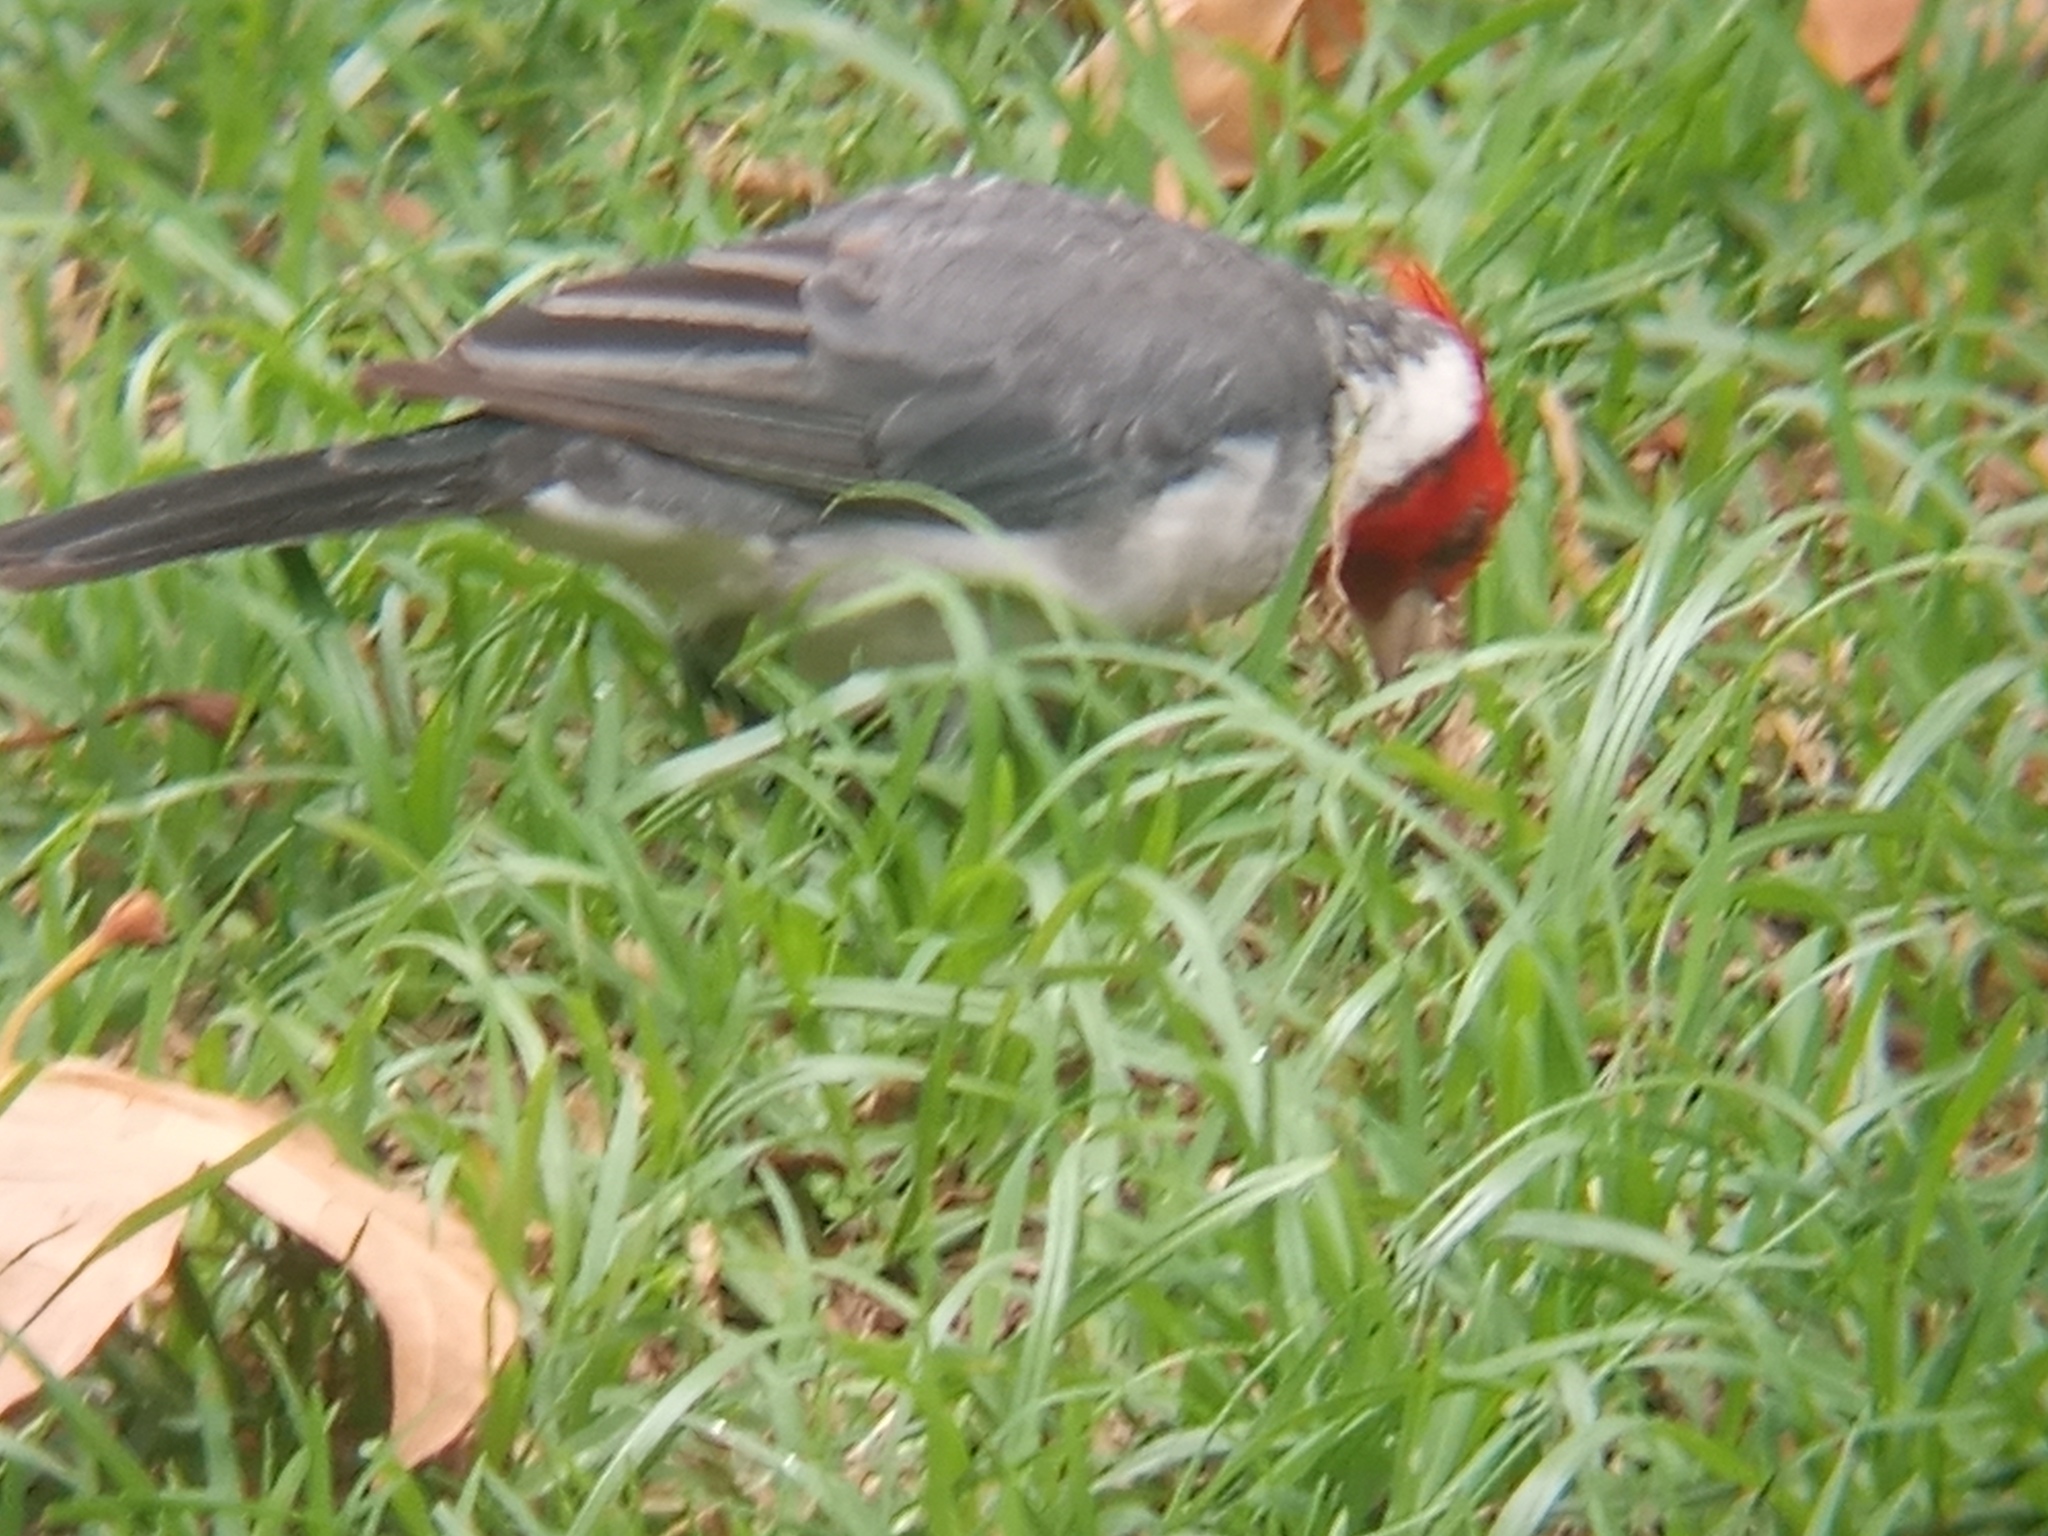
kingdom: Animalia
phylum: Chordata
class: Aves
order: Passeriformes
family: Thraupidae
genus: Paroaria
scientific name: Paroaria coronata
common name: Red-crested cardinal
